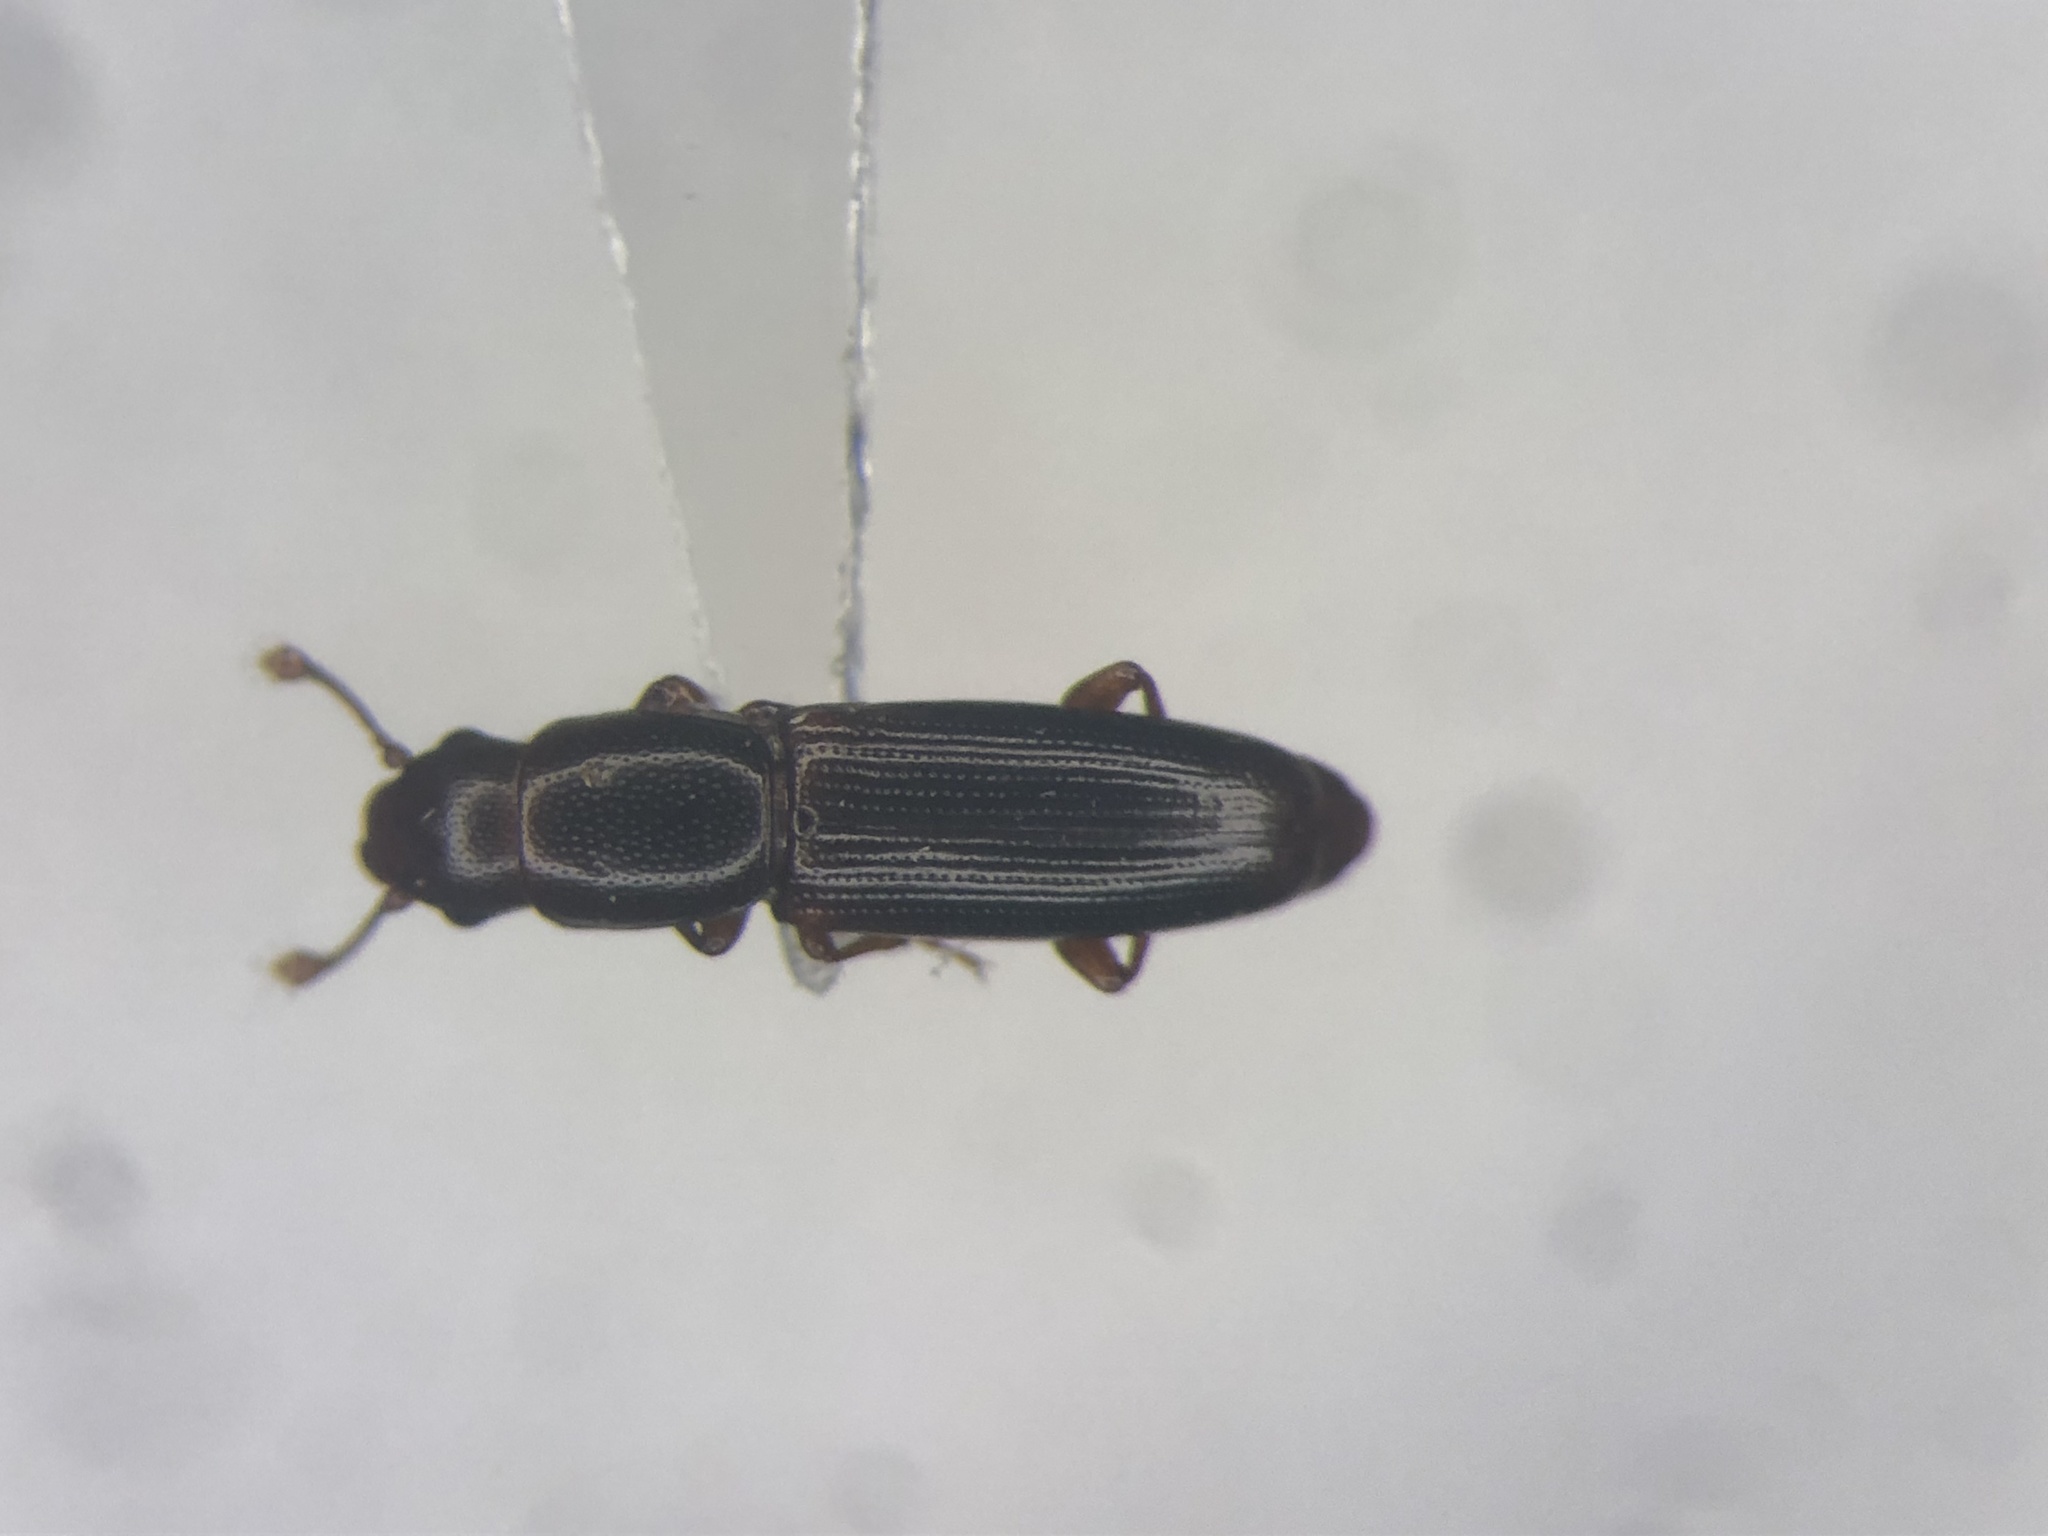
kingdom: Animalia
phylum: Arthropoda
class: Insecta
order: Coleoptera
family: Monotomidae
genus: Rhizophagus
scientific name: Rhizophagus dimidiatus
